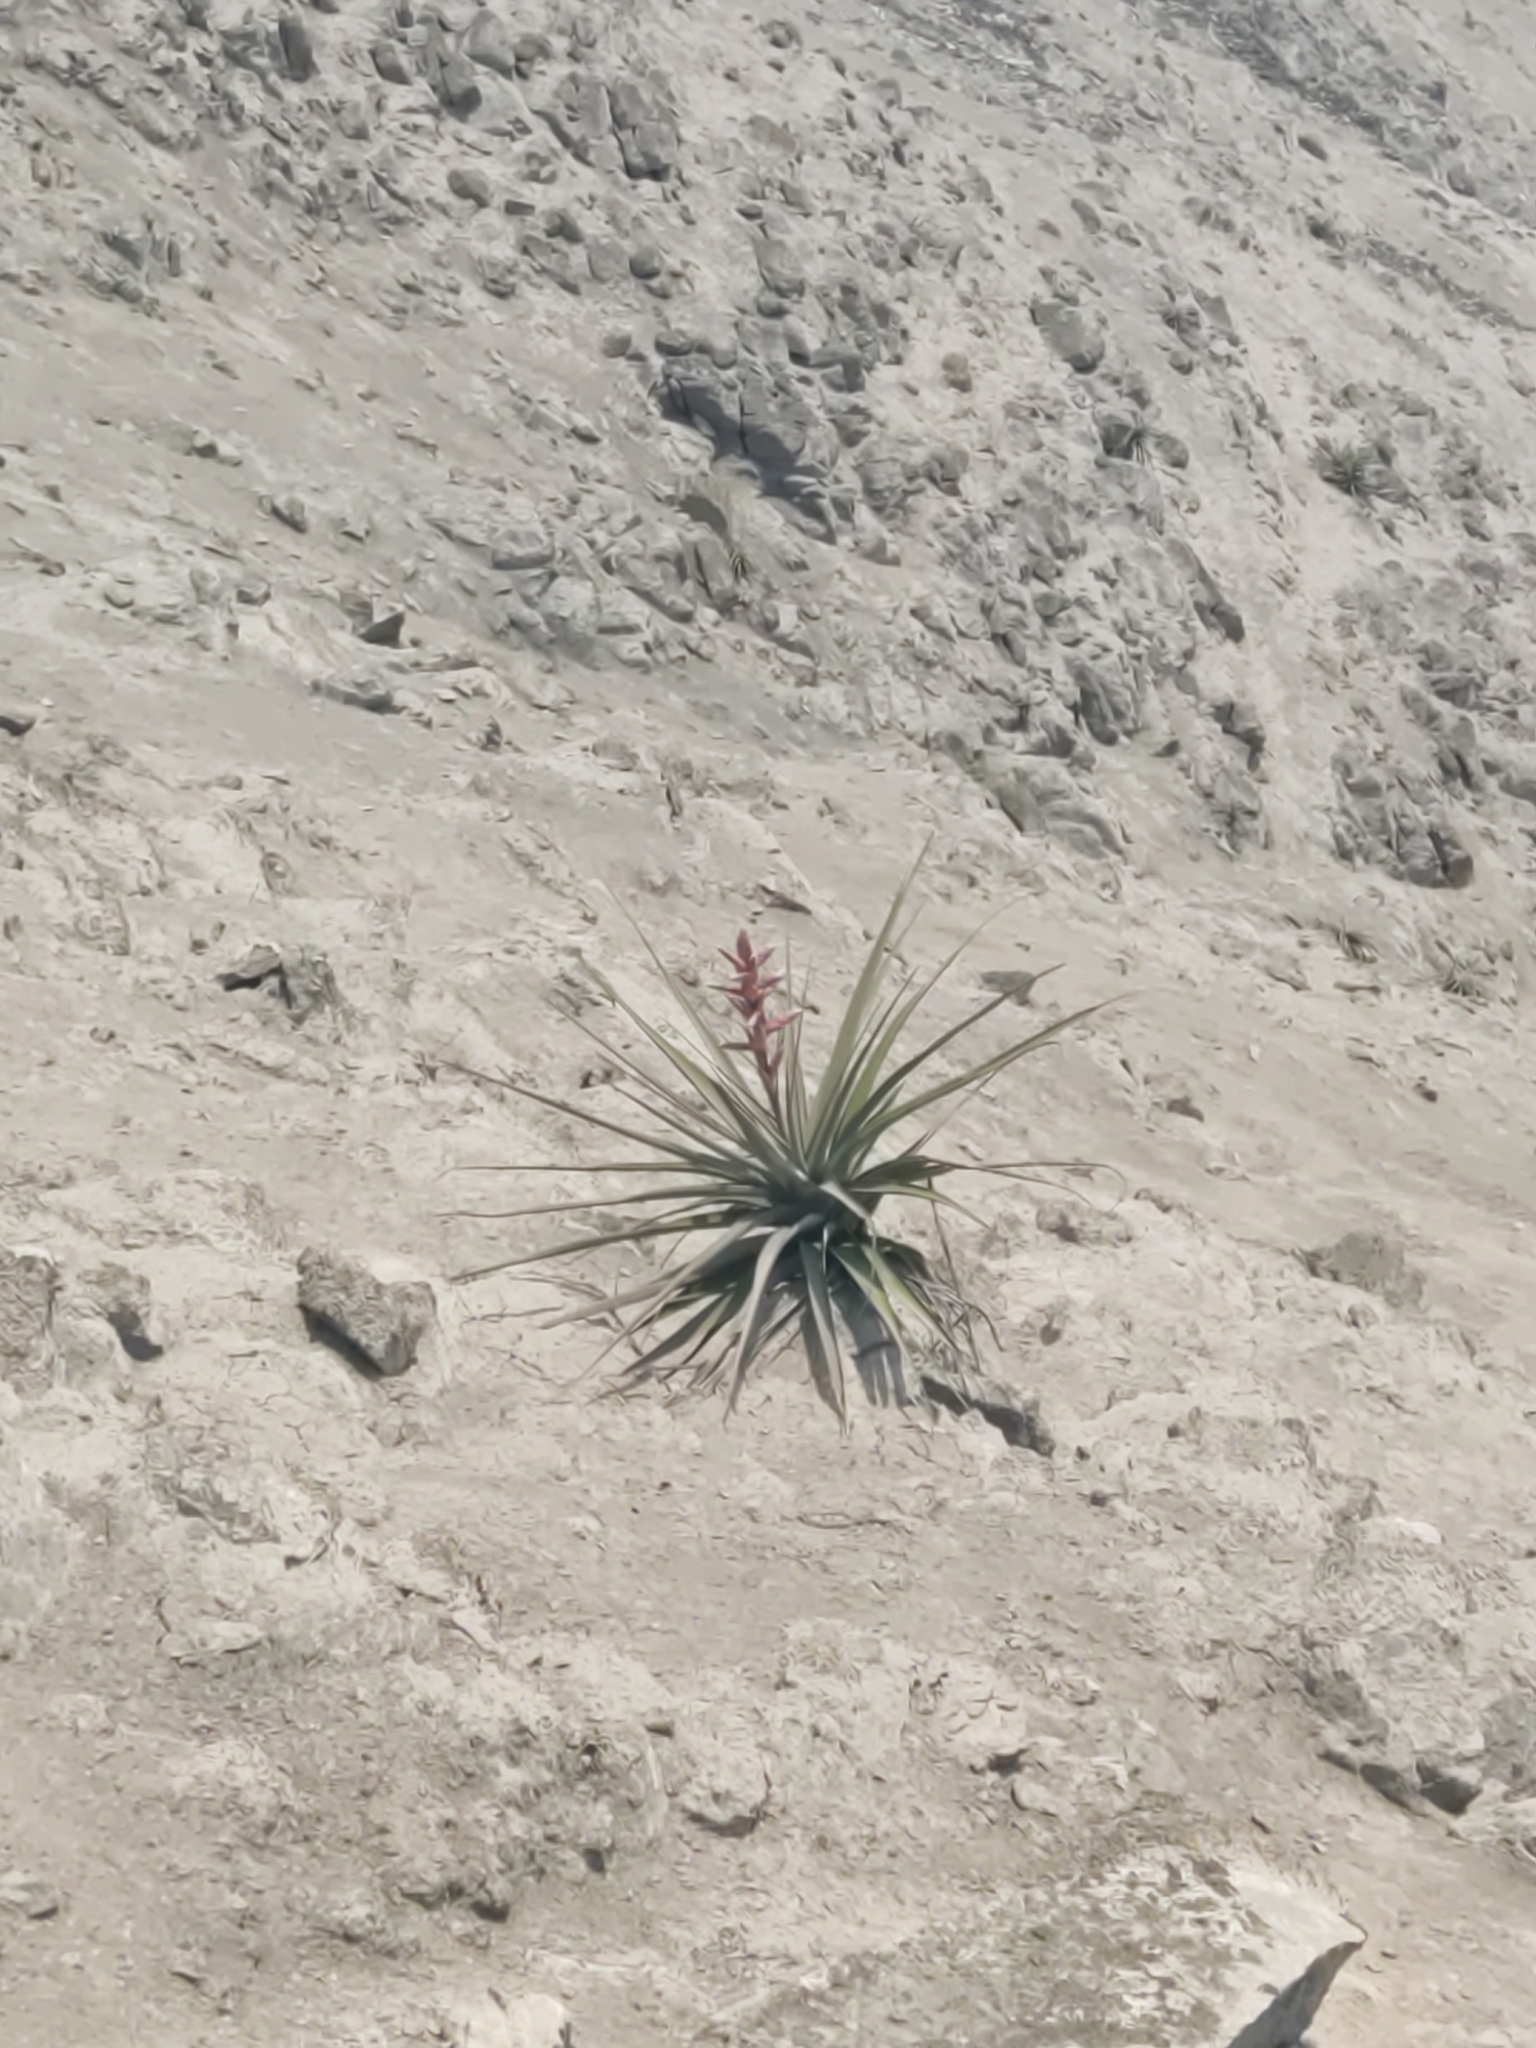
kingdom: Plantae
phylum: Tracheophyta
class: Liliopsida
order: Poales
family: Bromeliaceae
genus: Tillandsia
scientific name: Tillandsia latifolia
